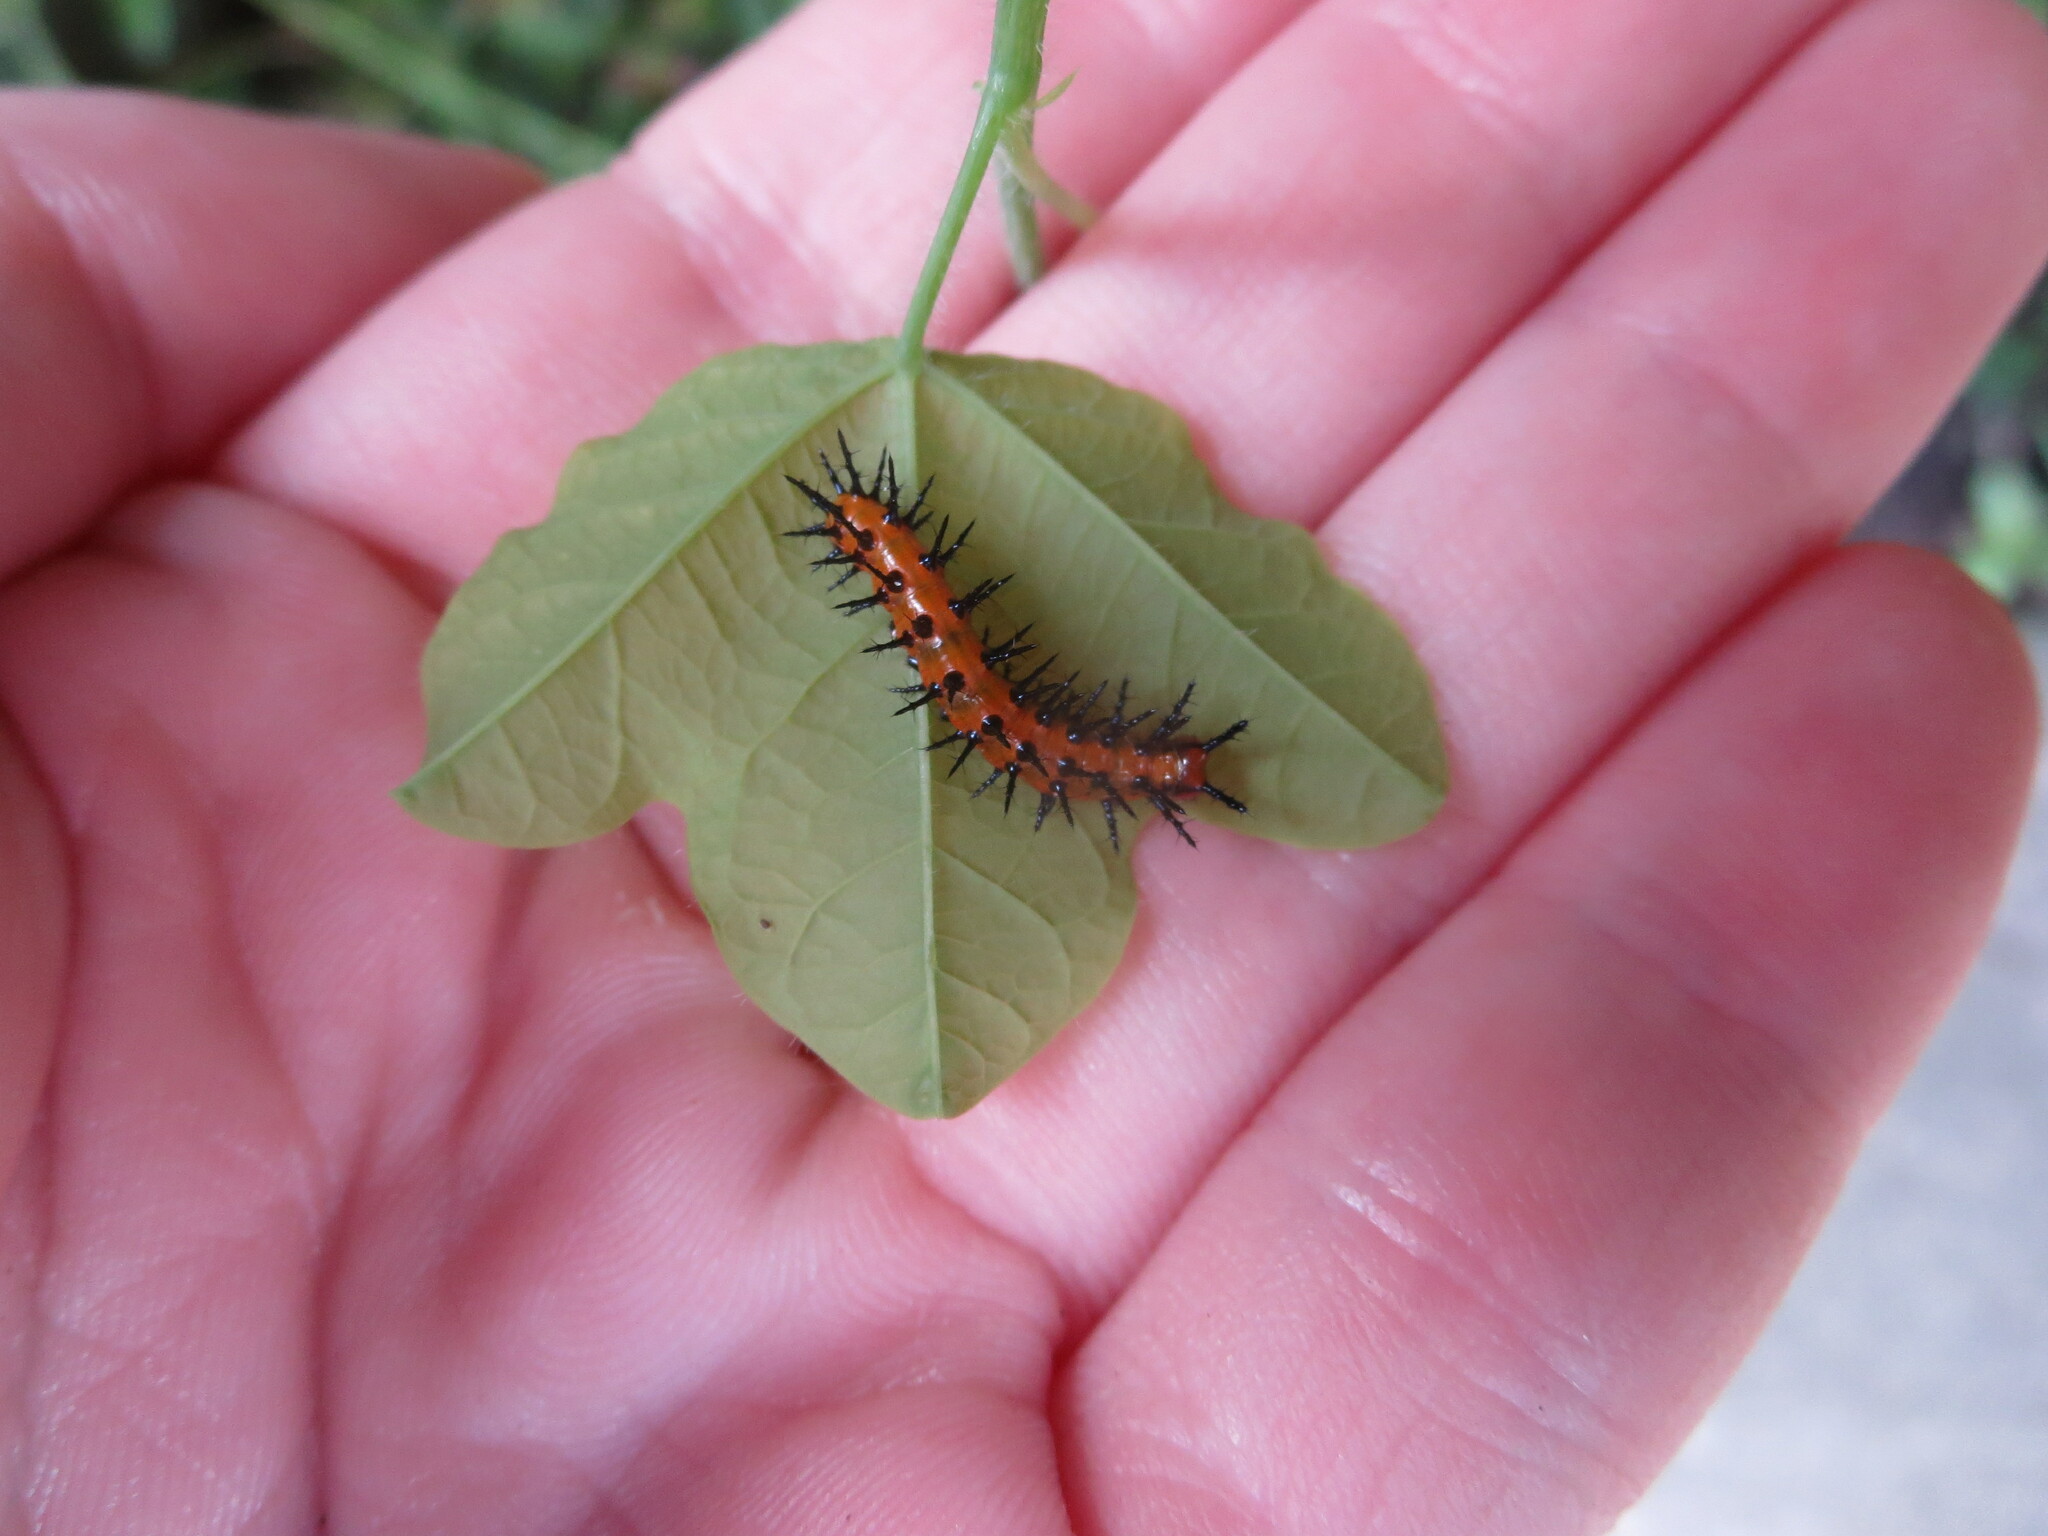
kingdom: Plantae
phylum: Tracheophyta
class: Magnoliopsida
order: Malpighiales
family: Passifloraceae
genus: Passiflora
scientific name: Passiflora lutea
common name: Yellow passionflower
